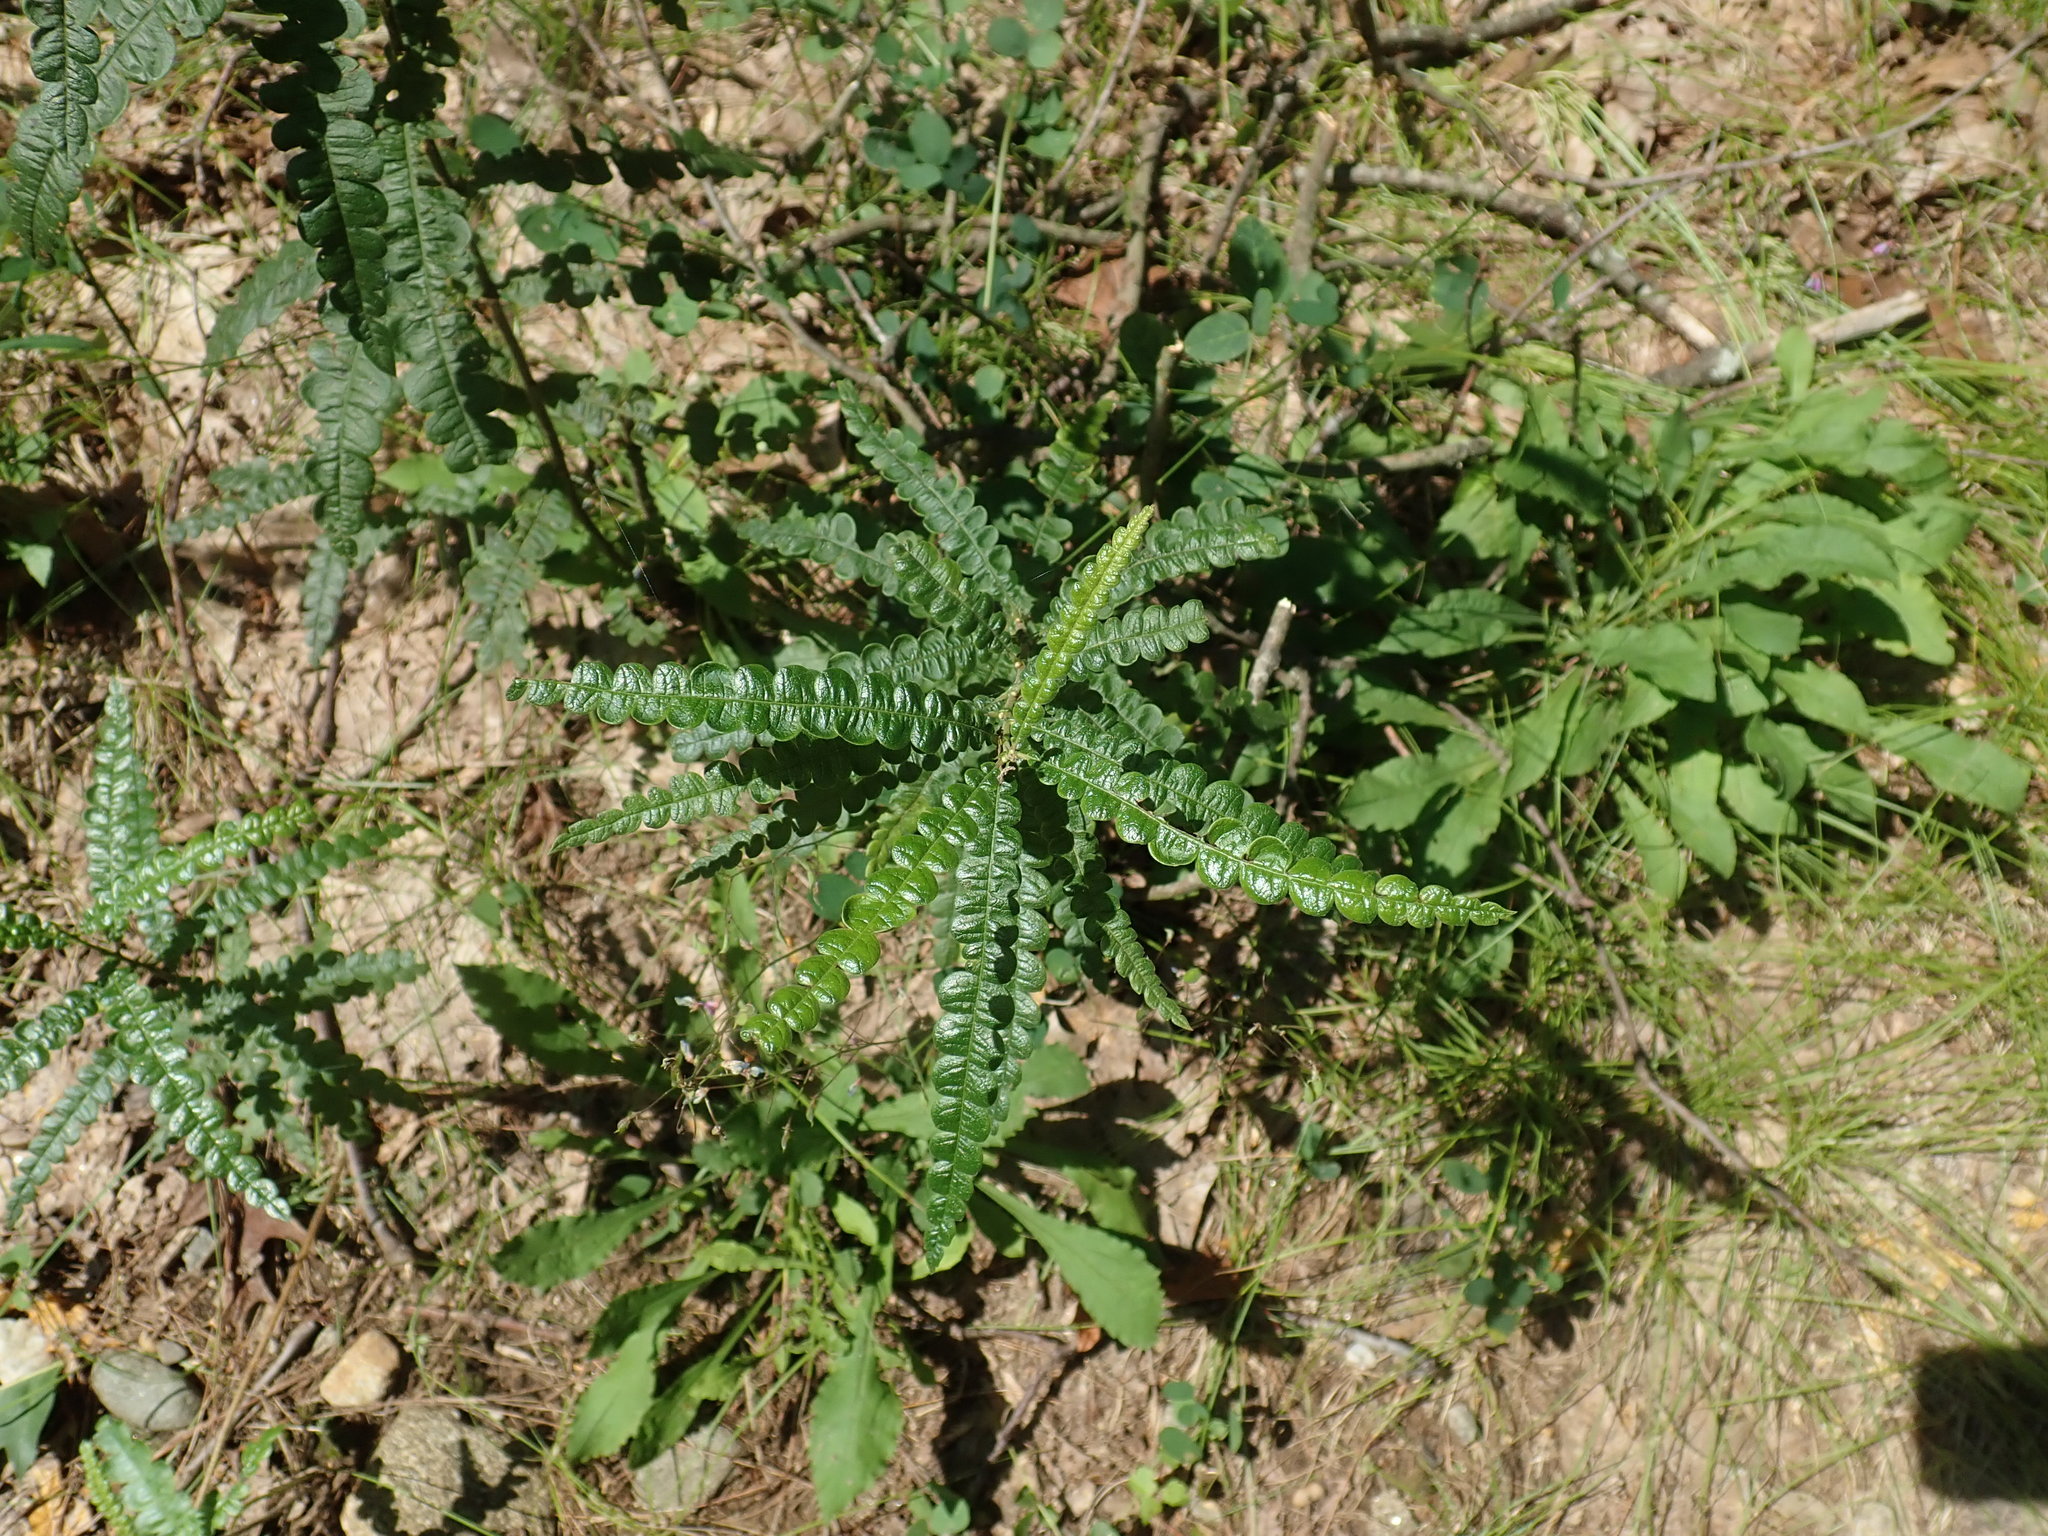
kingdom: Plantae
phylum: Tracheophyta
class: Magnoliopsida
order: Fagales
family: Myricaceae
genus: Comptonia
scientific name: Comptonia peregrina
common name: Sweet-fern
